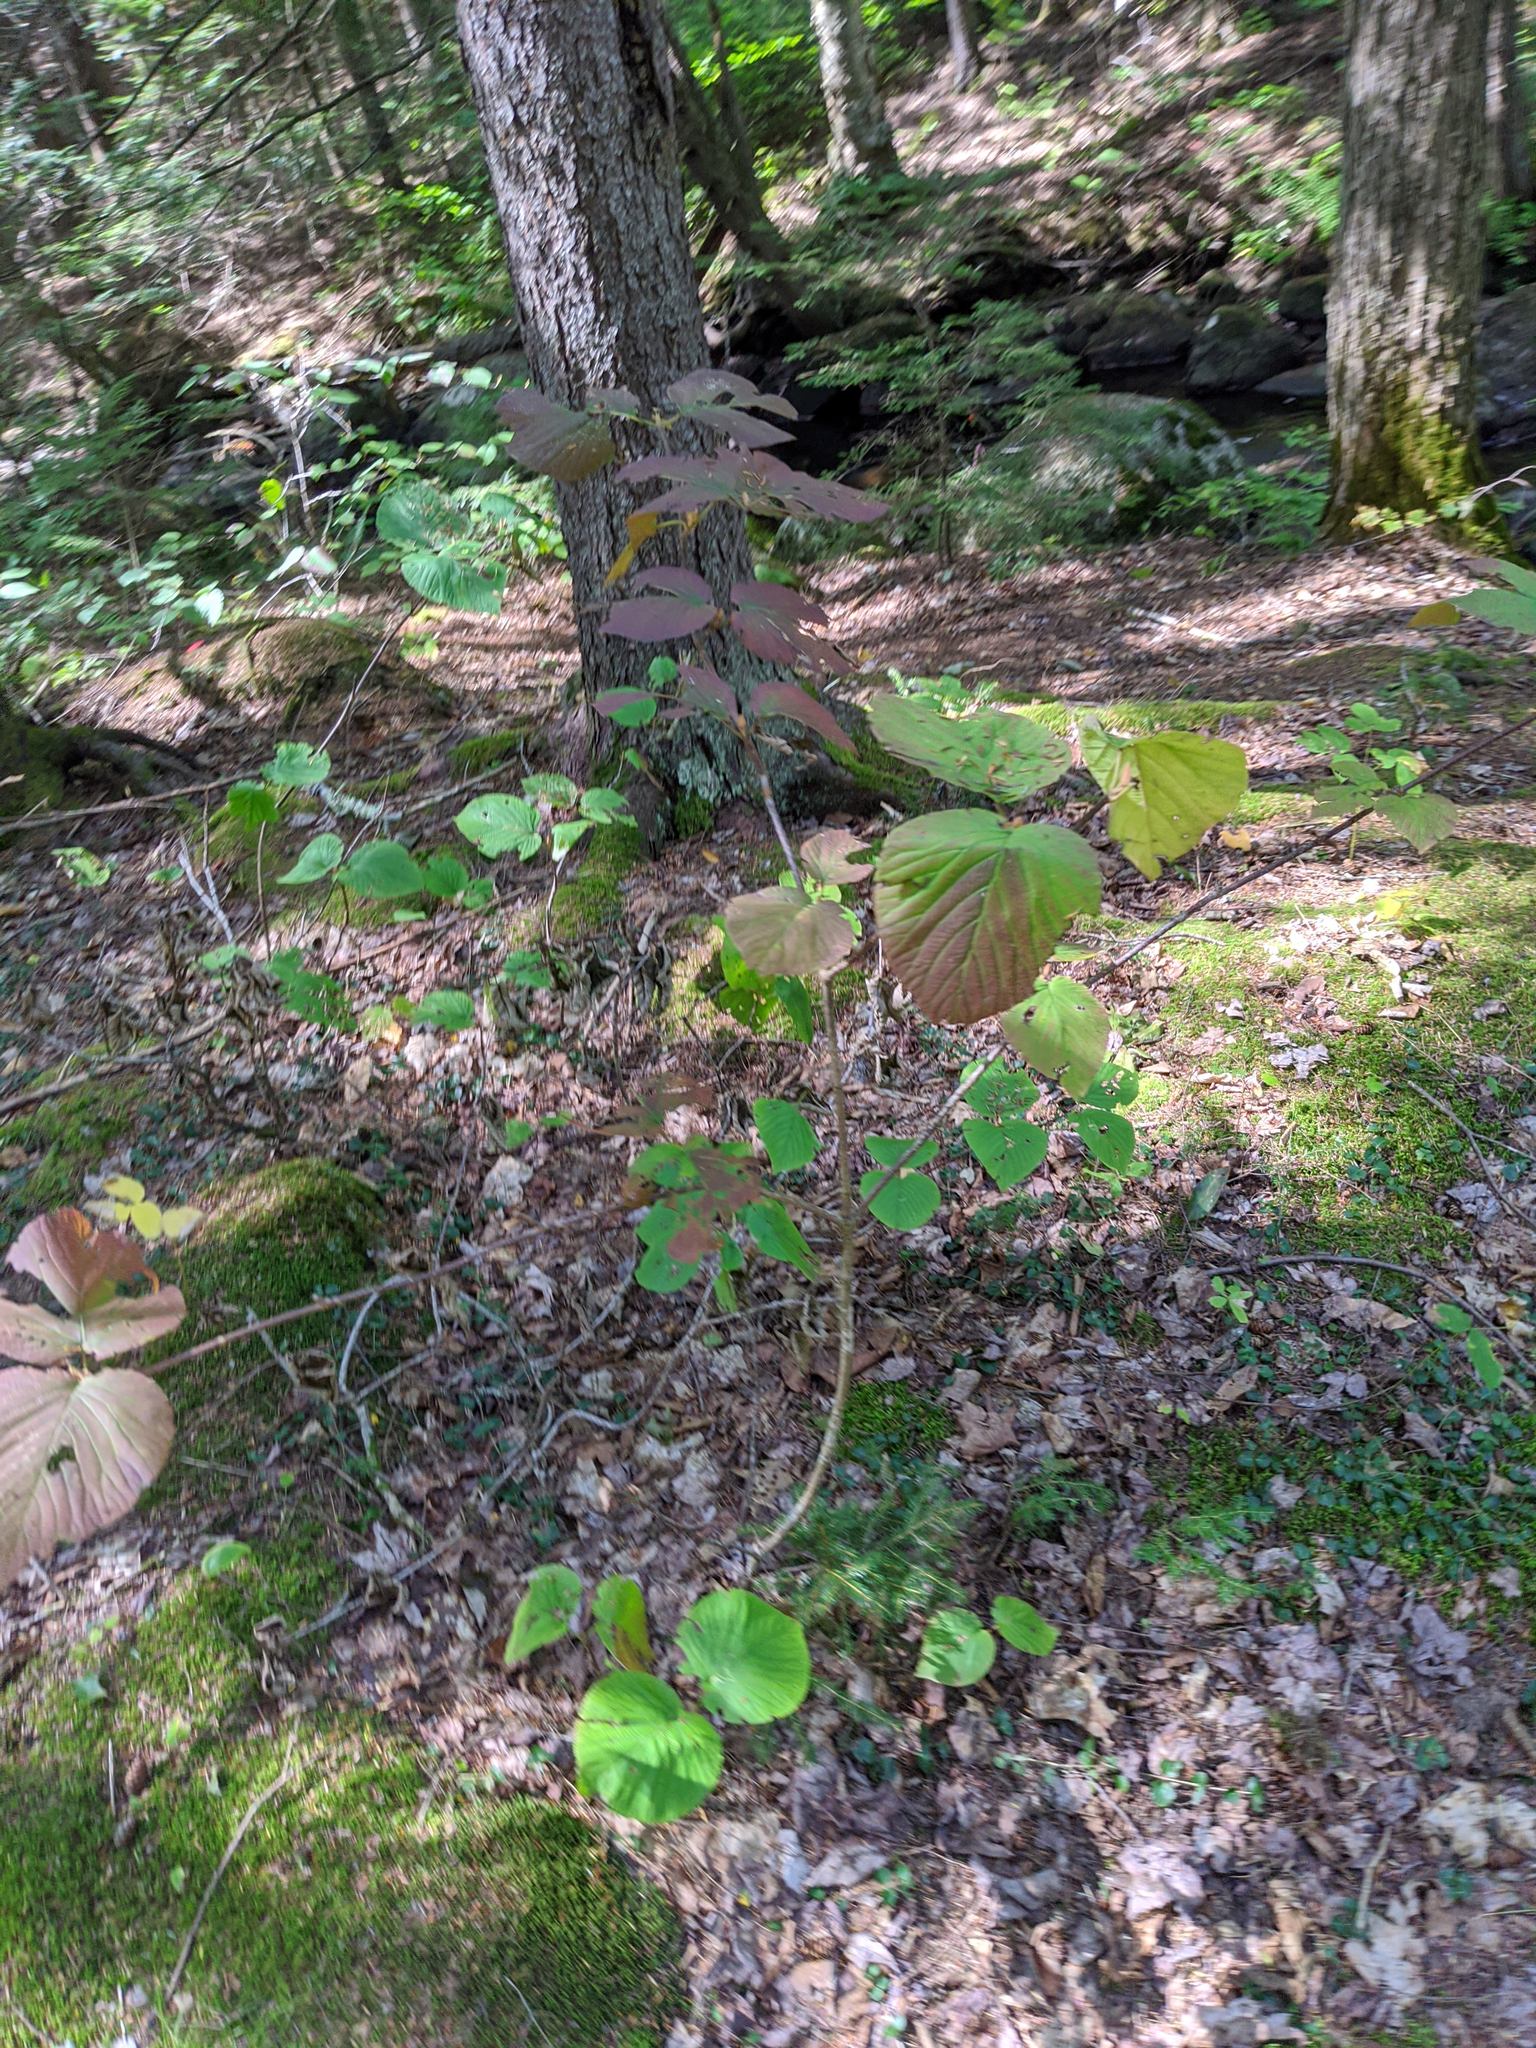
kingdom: Plantae
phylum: Tracheophyta
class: Magnoliopsida
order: Dipsacales
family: Viburnaceae
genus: Viburnum
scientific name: Viburnum lantanoides
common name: Hobblebush
